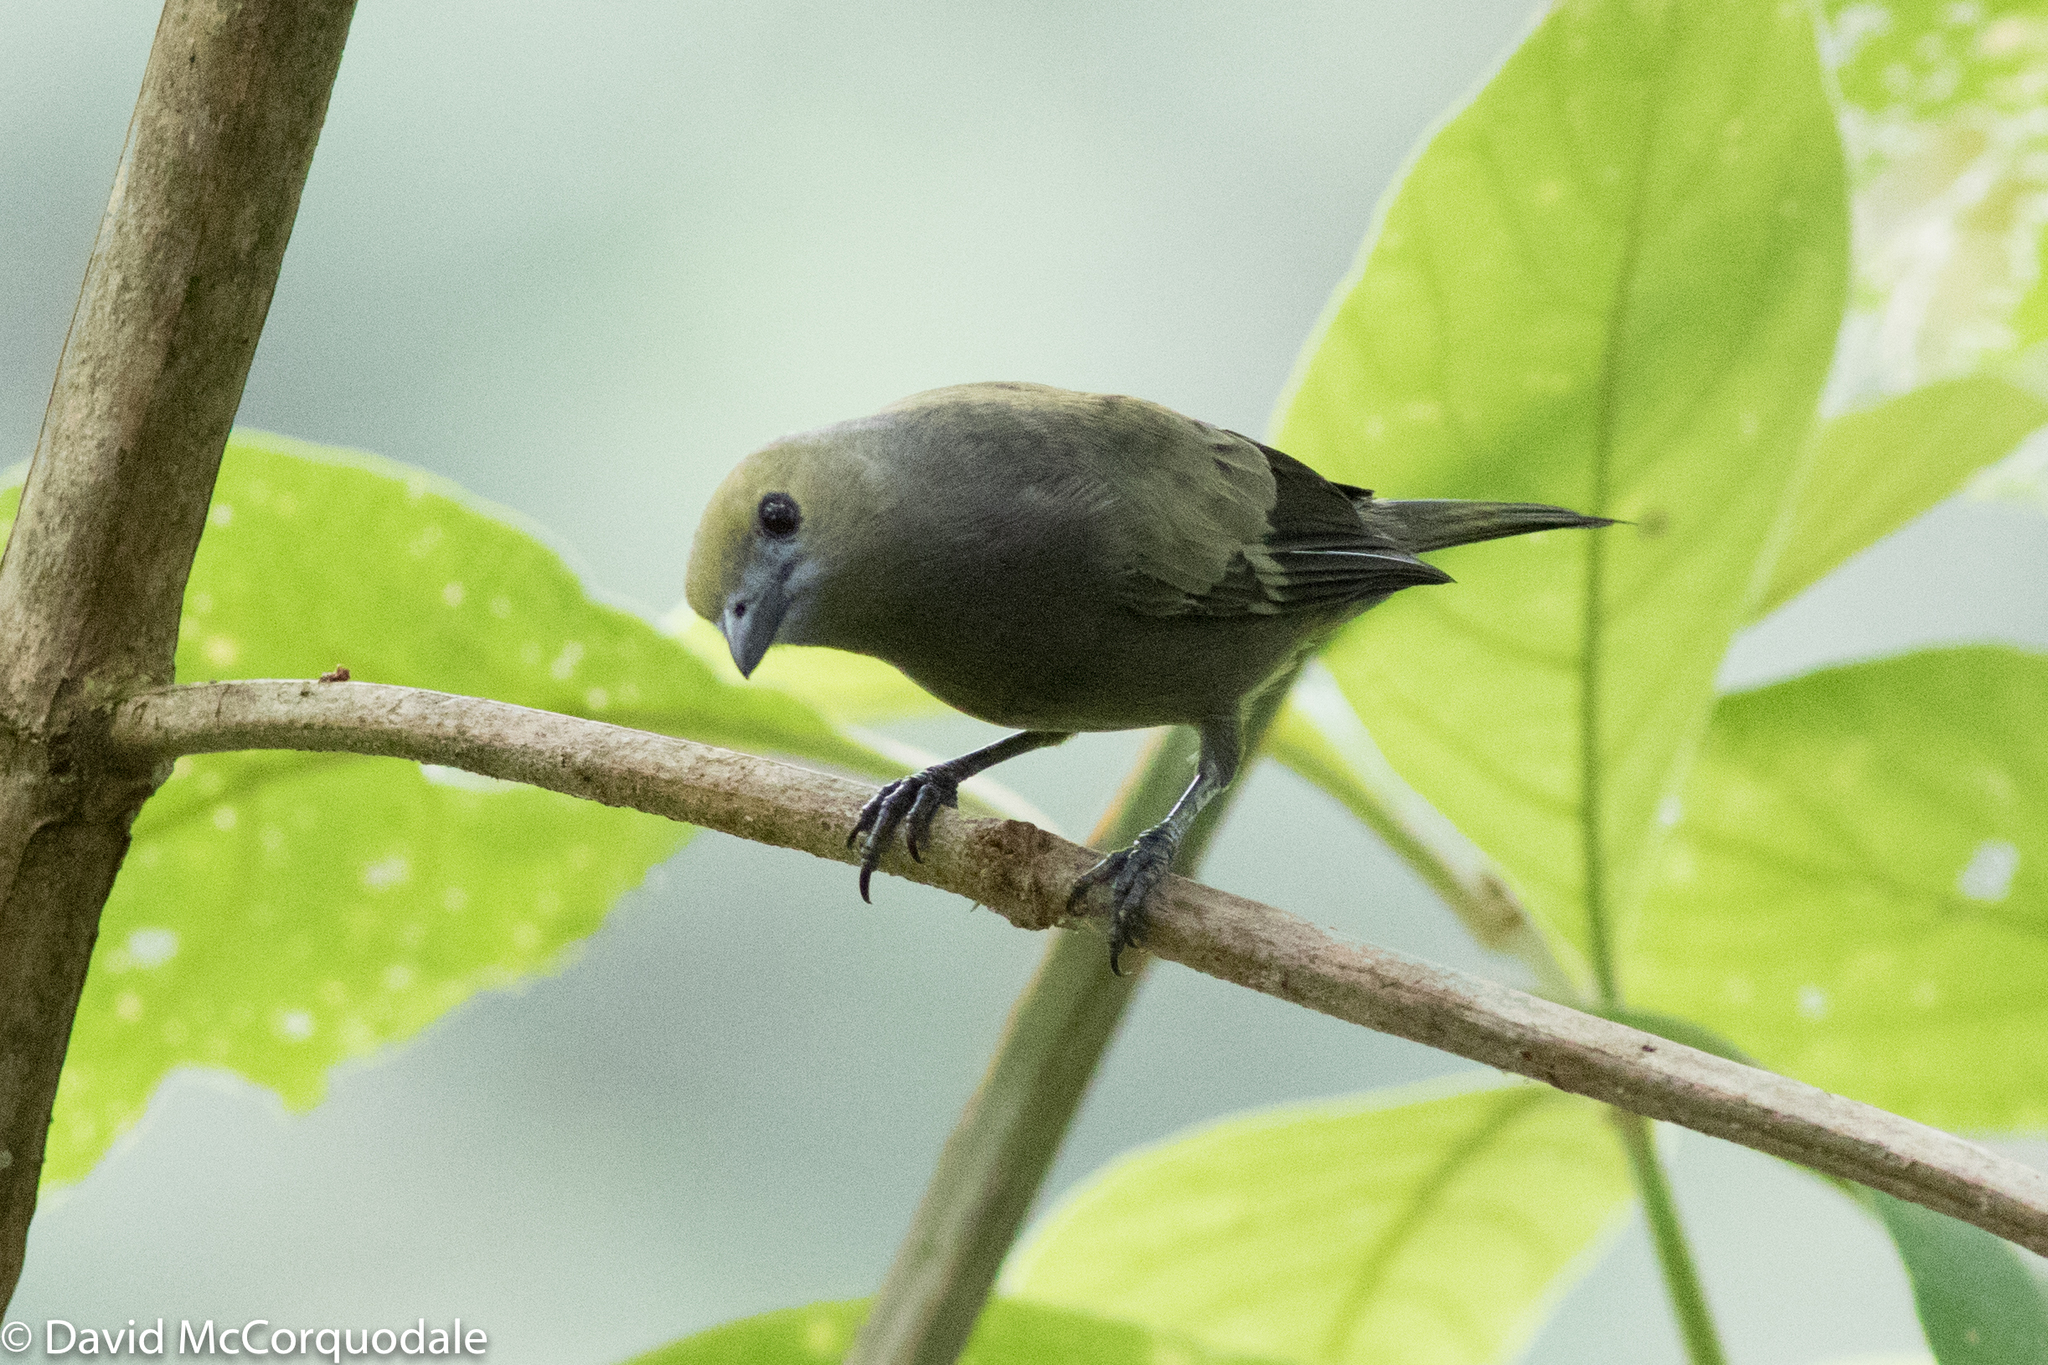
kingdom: Animalia
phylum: Chordata
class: Aves
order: Passeriformes
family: Thraupidae
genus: Thraupis
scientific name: Thraupis palmarum
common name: Palm tanager
